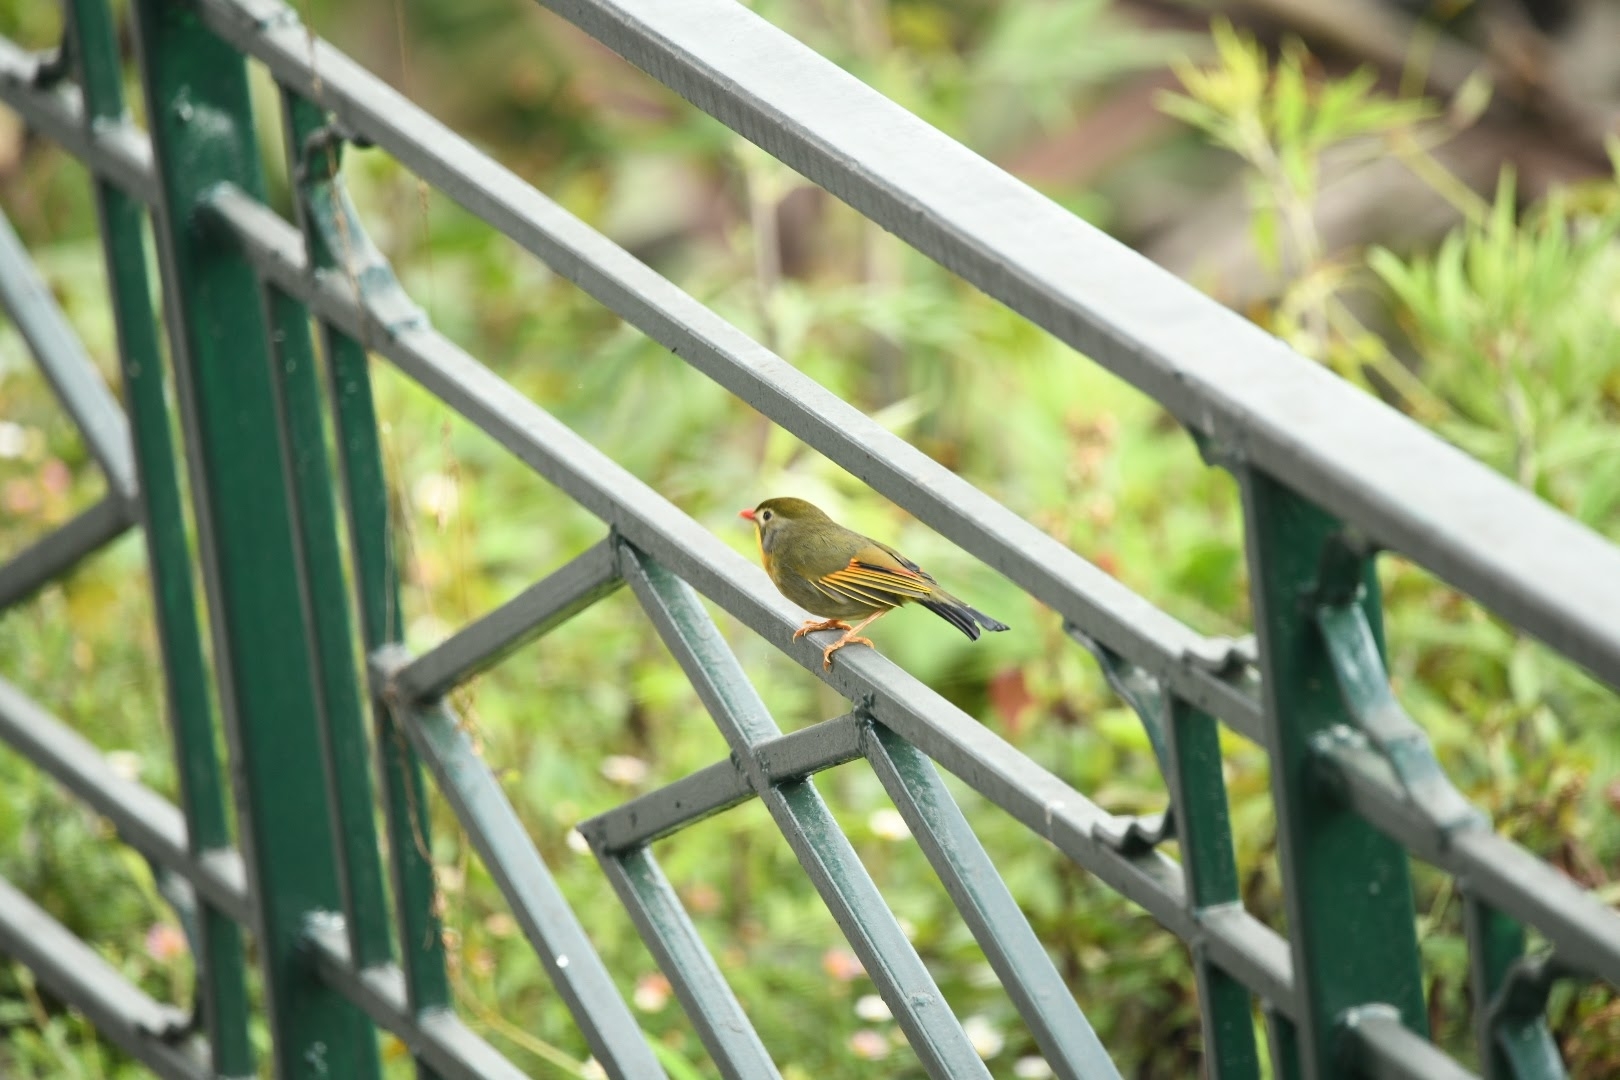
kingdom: Animalia
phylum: Chordata
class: Aves
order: Passeriformes
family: Leiothrichidae
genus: Leiothrix
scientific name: Leiothrix lutea
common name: Red-billed leiothrix
